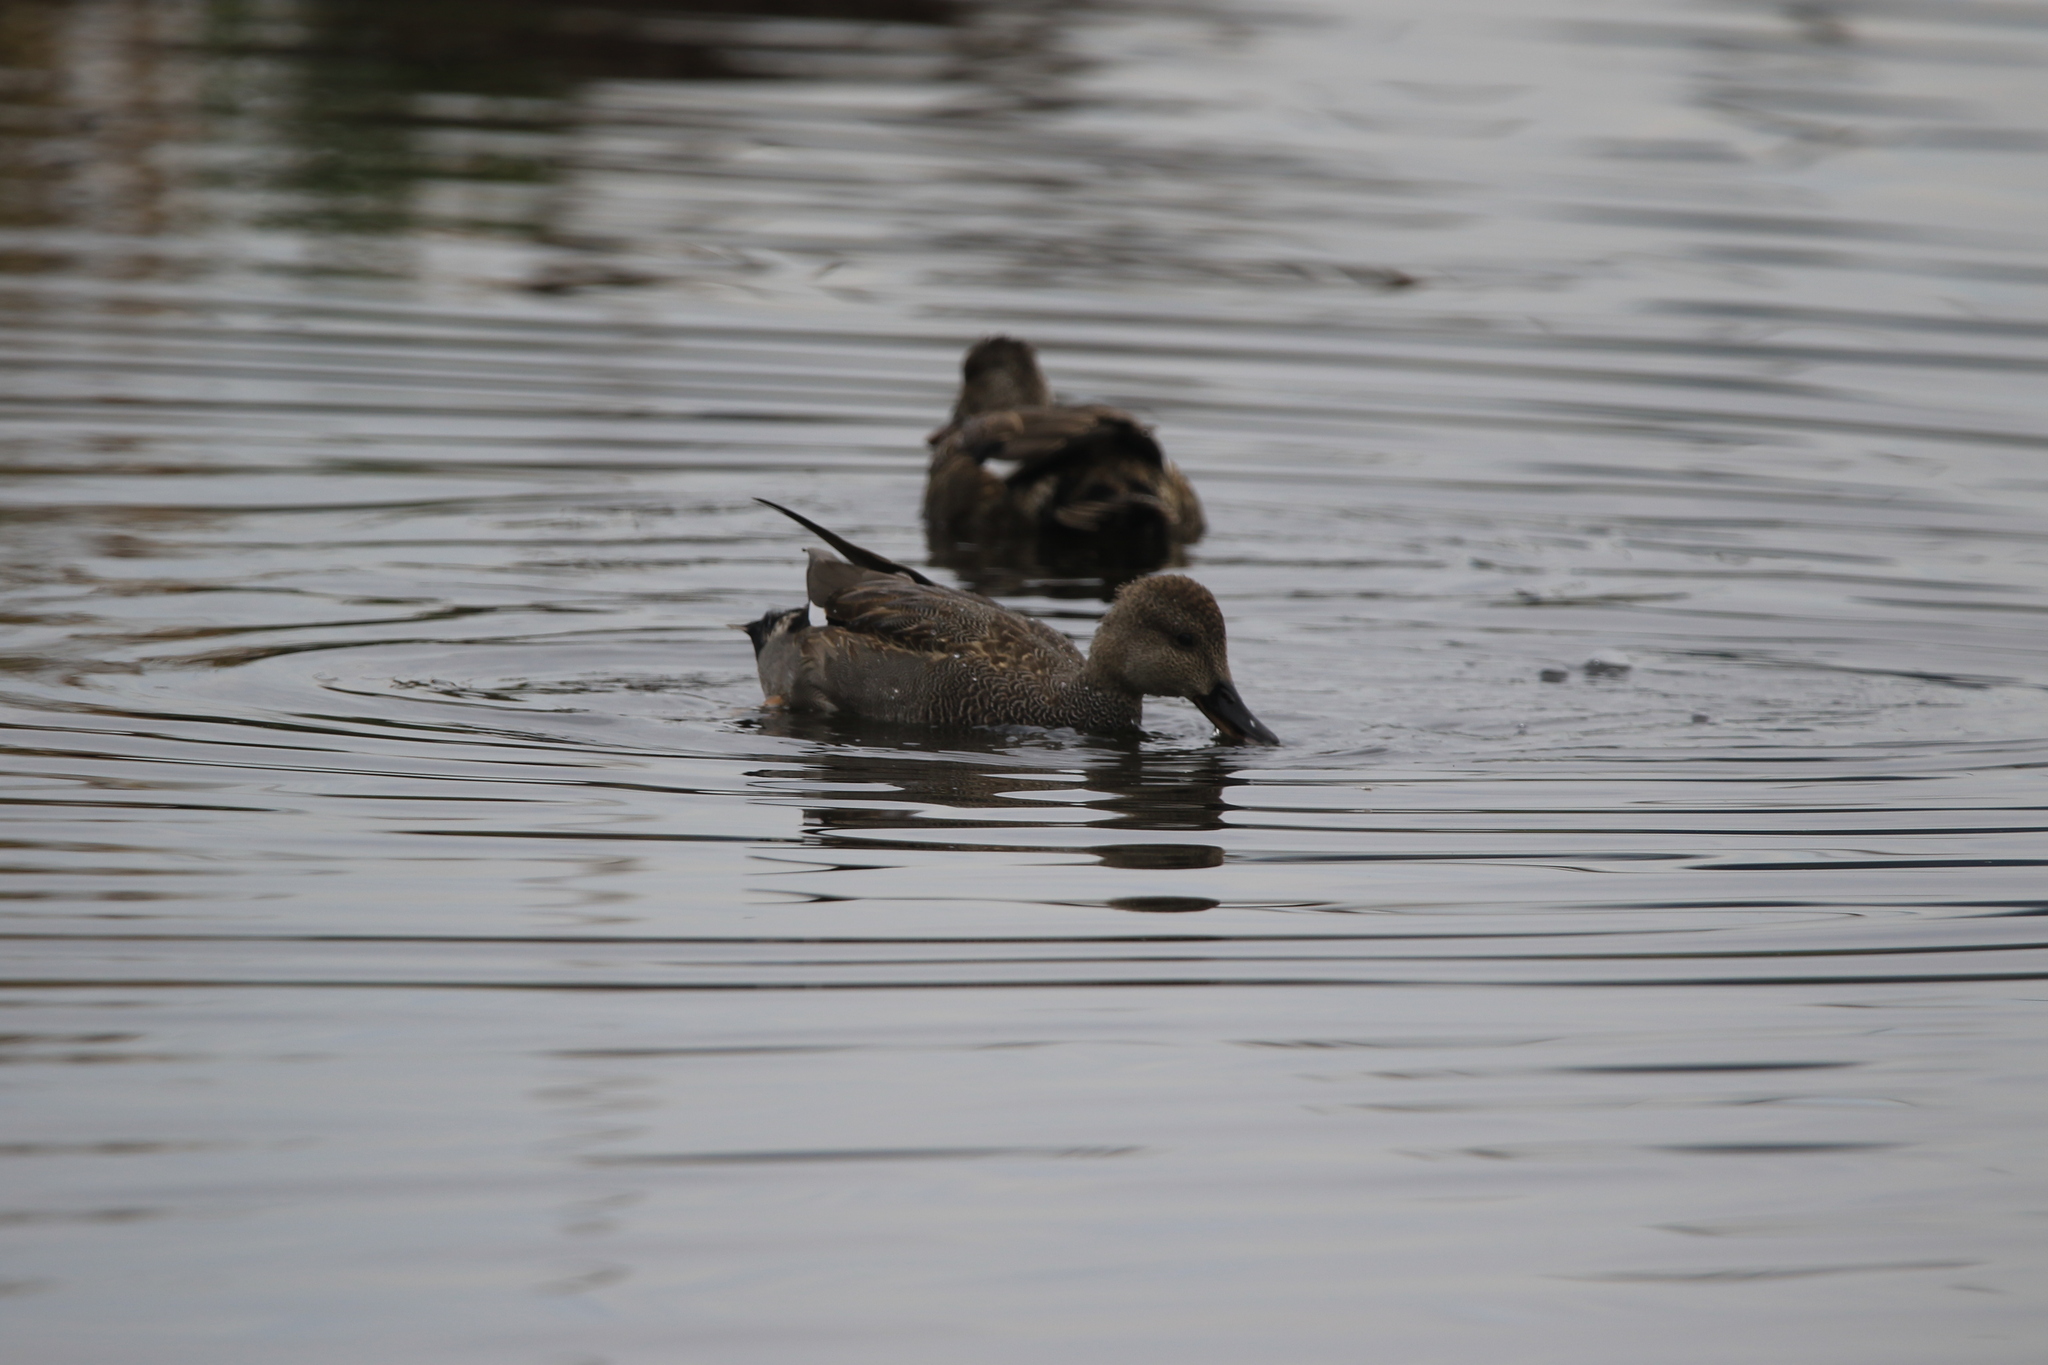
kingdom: Animalia
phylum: Chordata
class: Aves
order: Anseriformes
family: Anatidae
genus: Mareca
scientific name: Mareca strepera
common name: Gadwall
